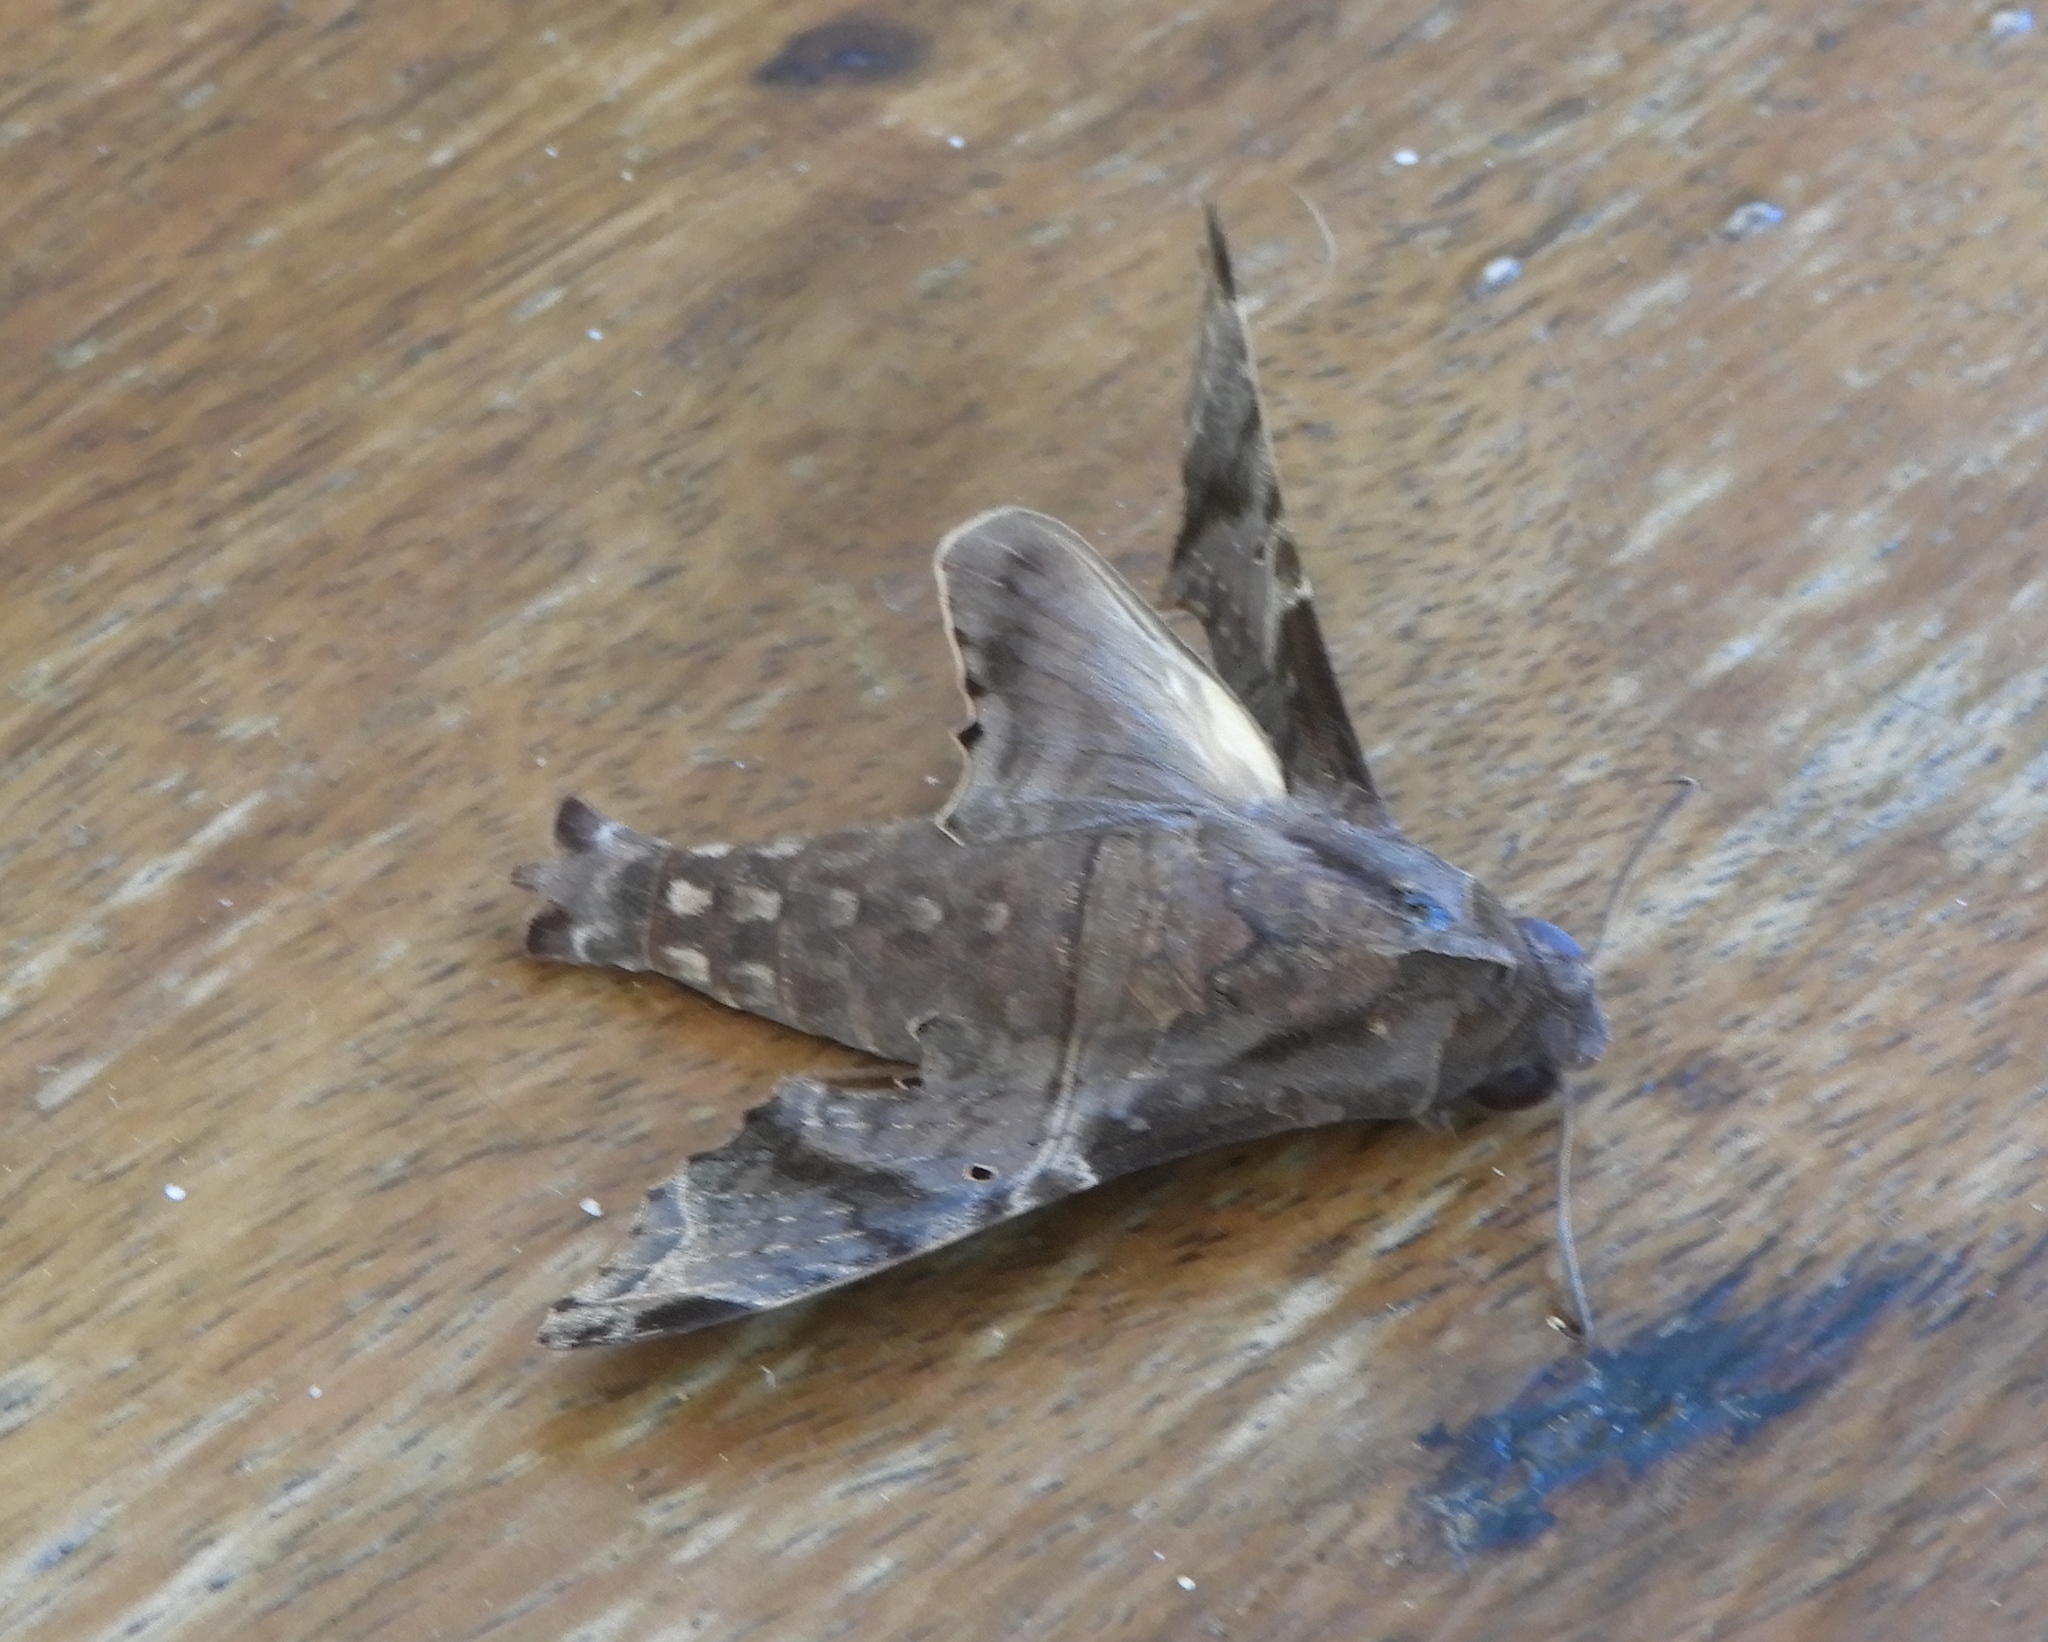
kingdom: Animalia
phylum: Arthropoda
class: Insecta
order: Lepidoptera
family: Sphingidae
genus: Enyo
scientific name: Enyo lugubris
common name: Mournful sphinx
